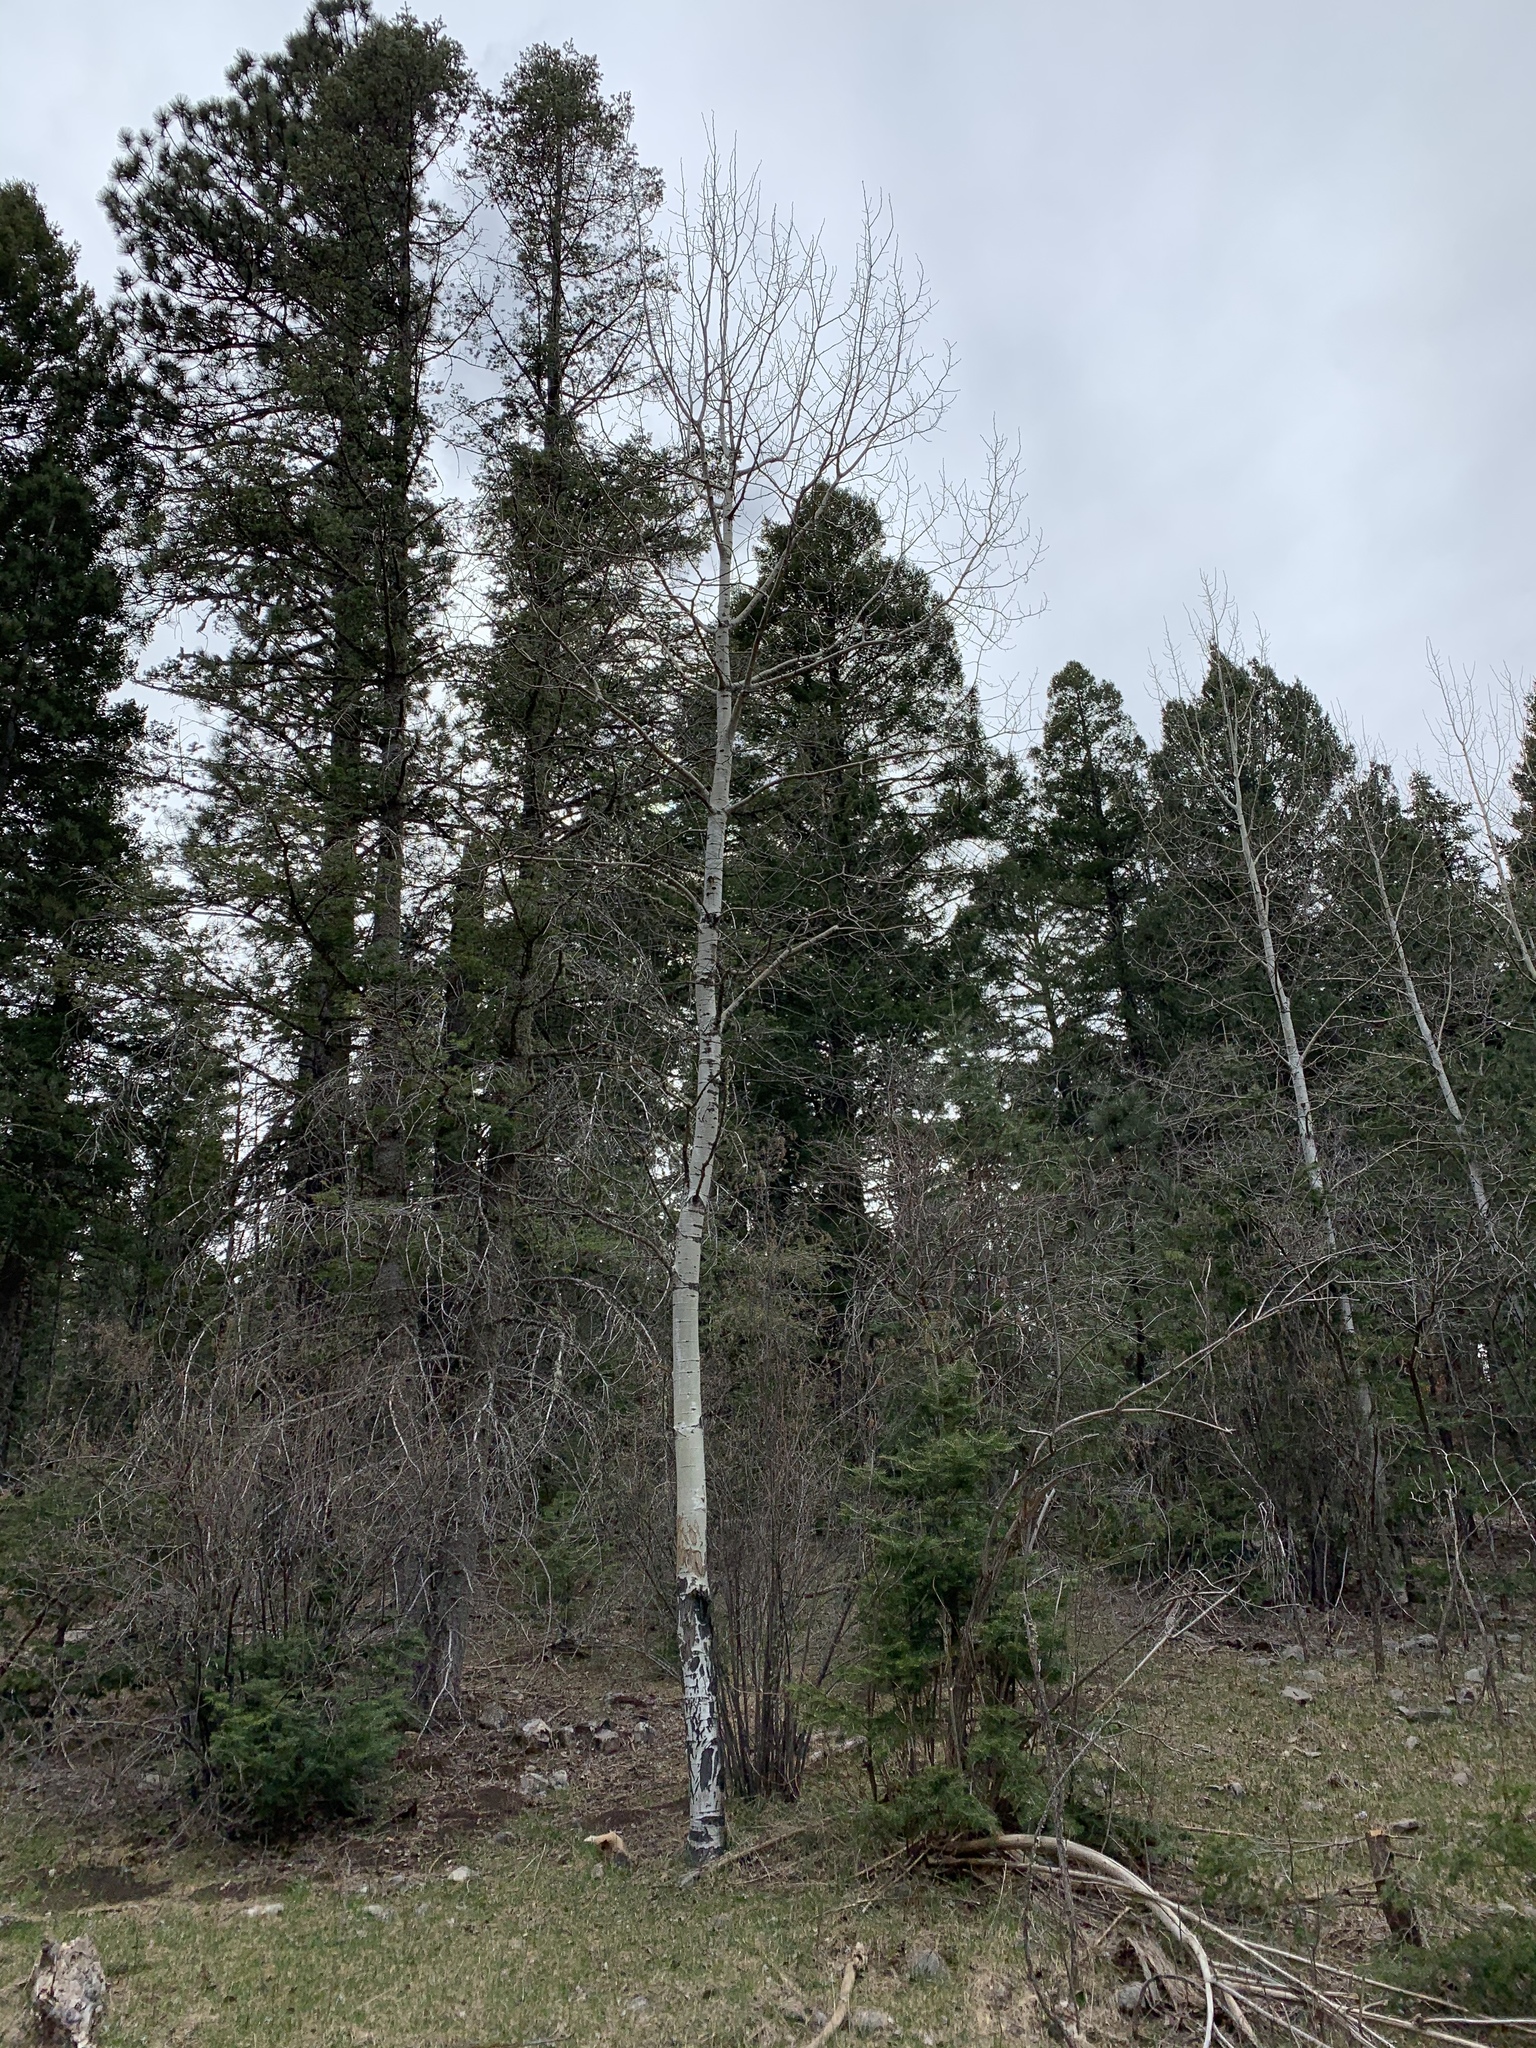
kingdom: Plantae
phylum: Tracheophyta
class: Magnoliopsida
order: Malpighiales
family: Salicaceae
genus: Populus
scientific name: Populus tremuloides
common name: Quaking aspen
